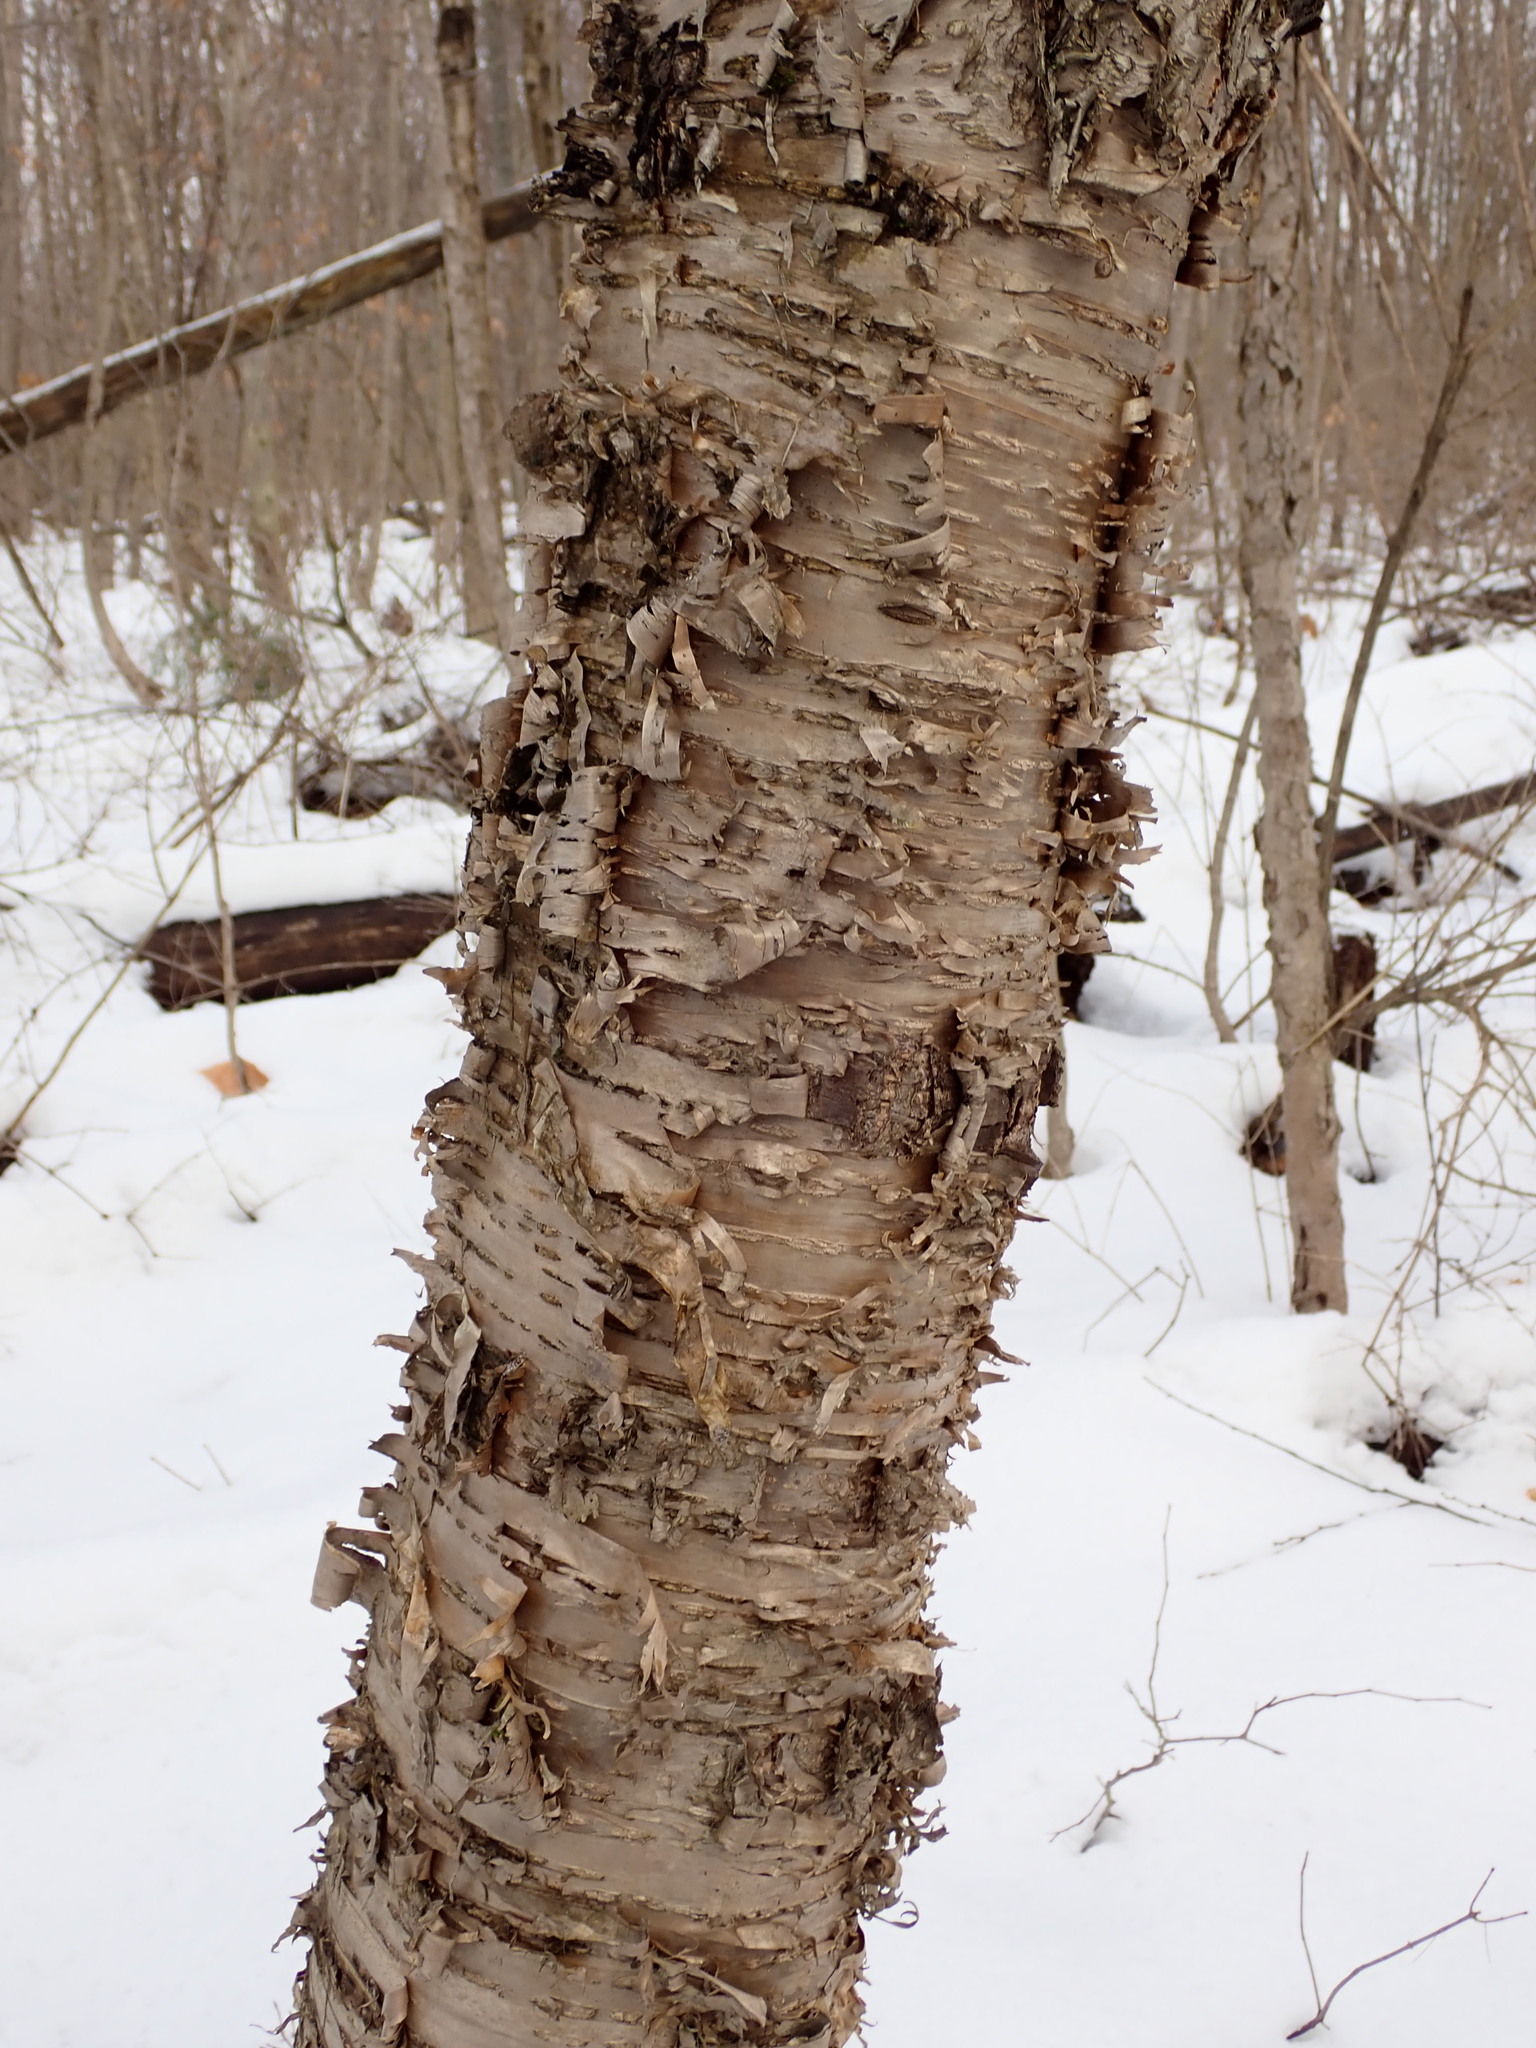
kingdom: Plantae
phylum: Tracheophyta
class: Magnoliopsida
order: Fagales
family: Betulaceae
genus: Betula
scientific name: Betula alleghaniensis
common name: Yellow birch
